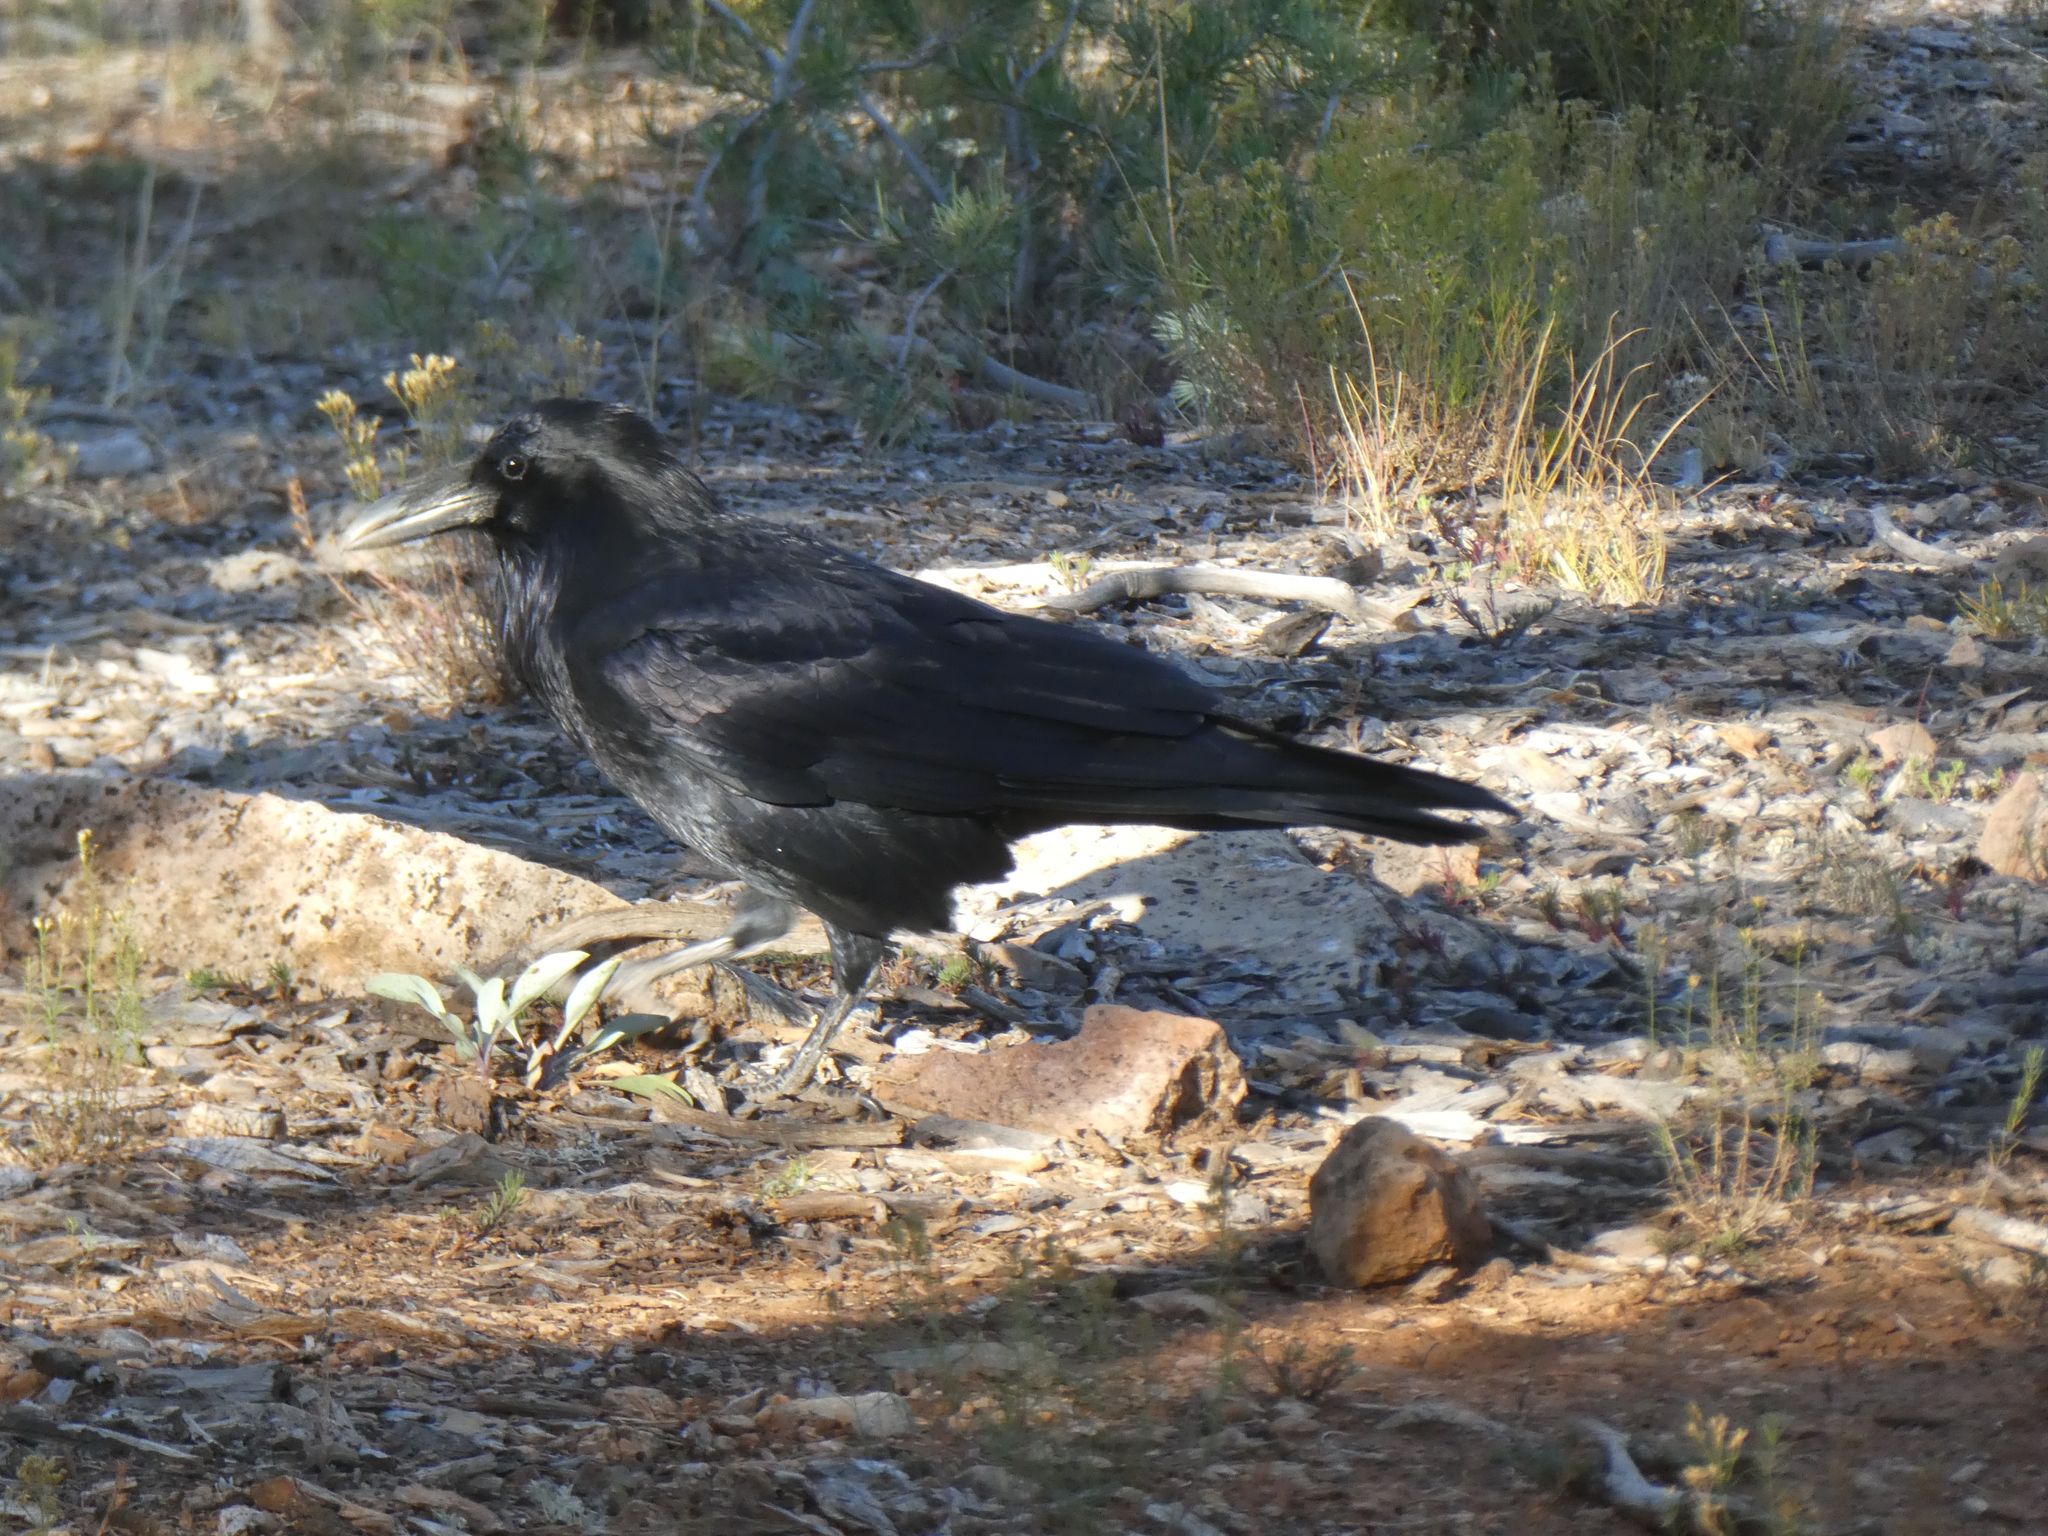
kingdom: Animalia
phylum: Chordata
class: Aves
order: Passeriformes
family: Corvidae
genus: Corvus
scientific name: Corvus corax
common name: Common raven
